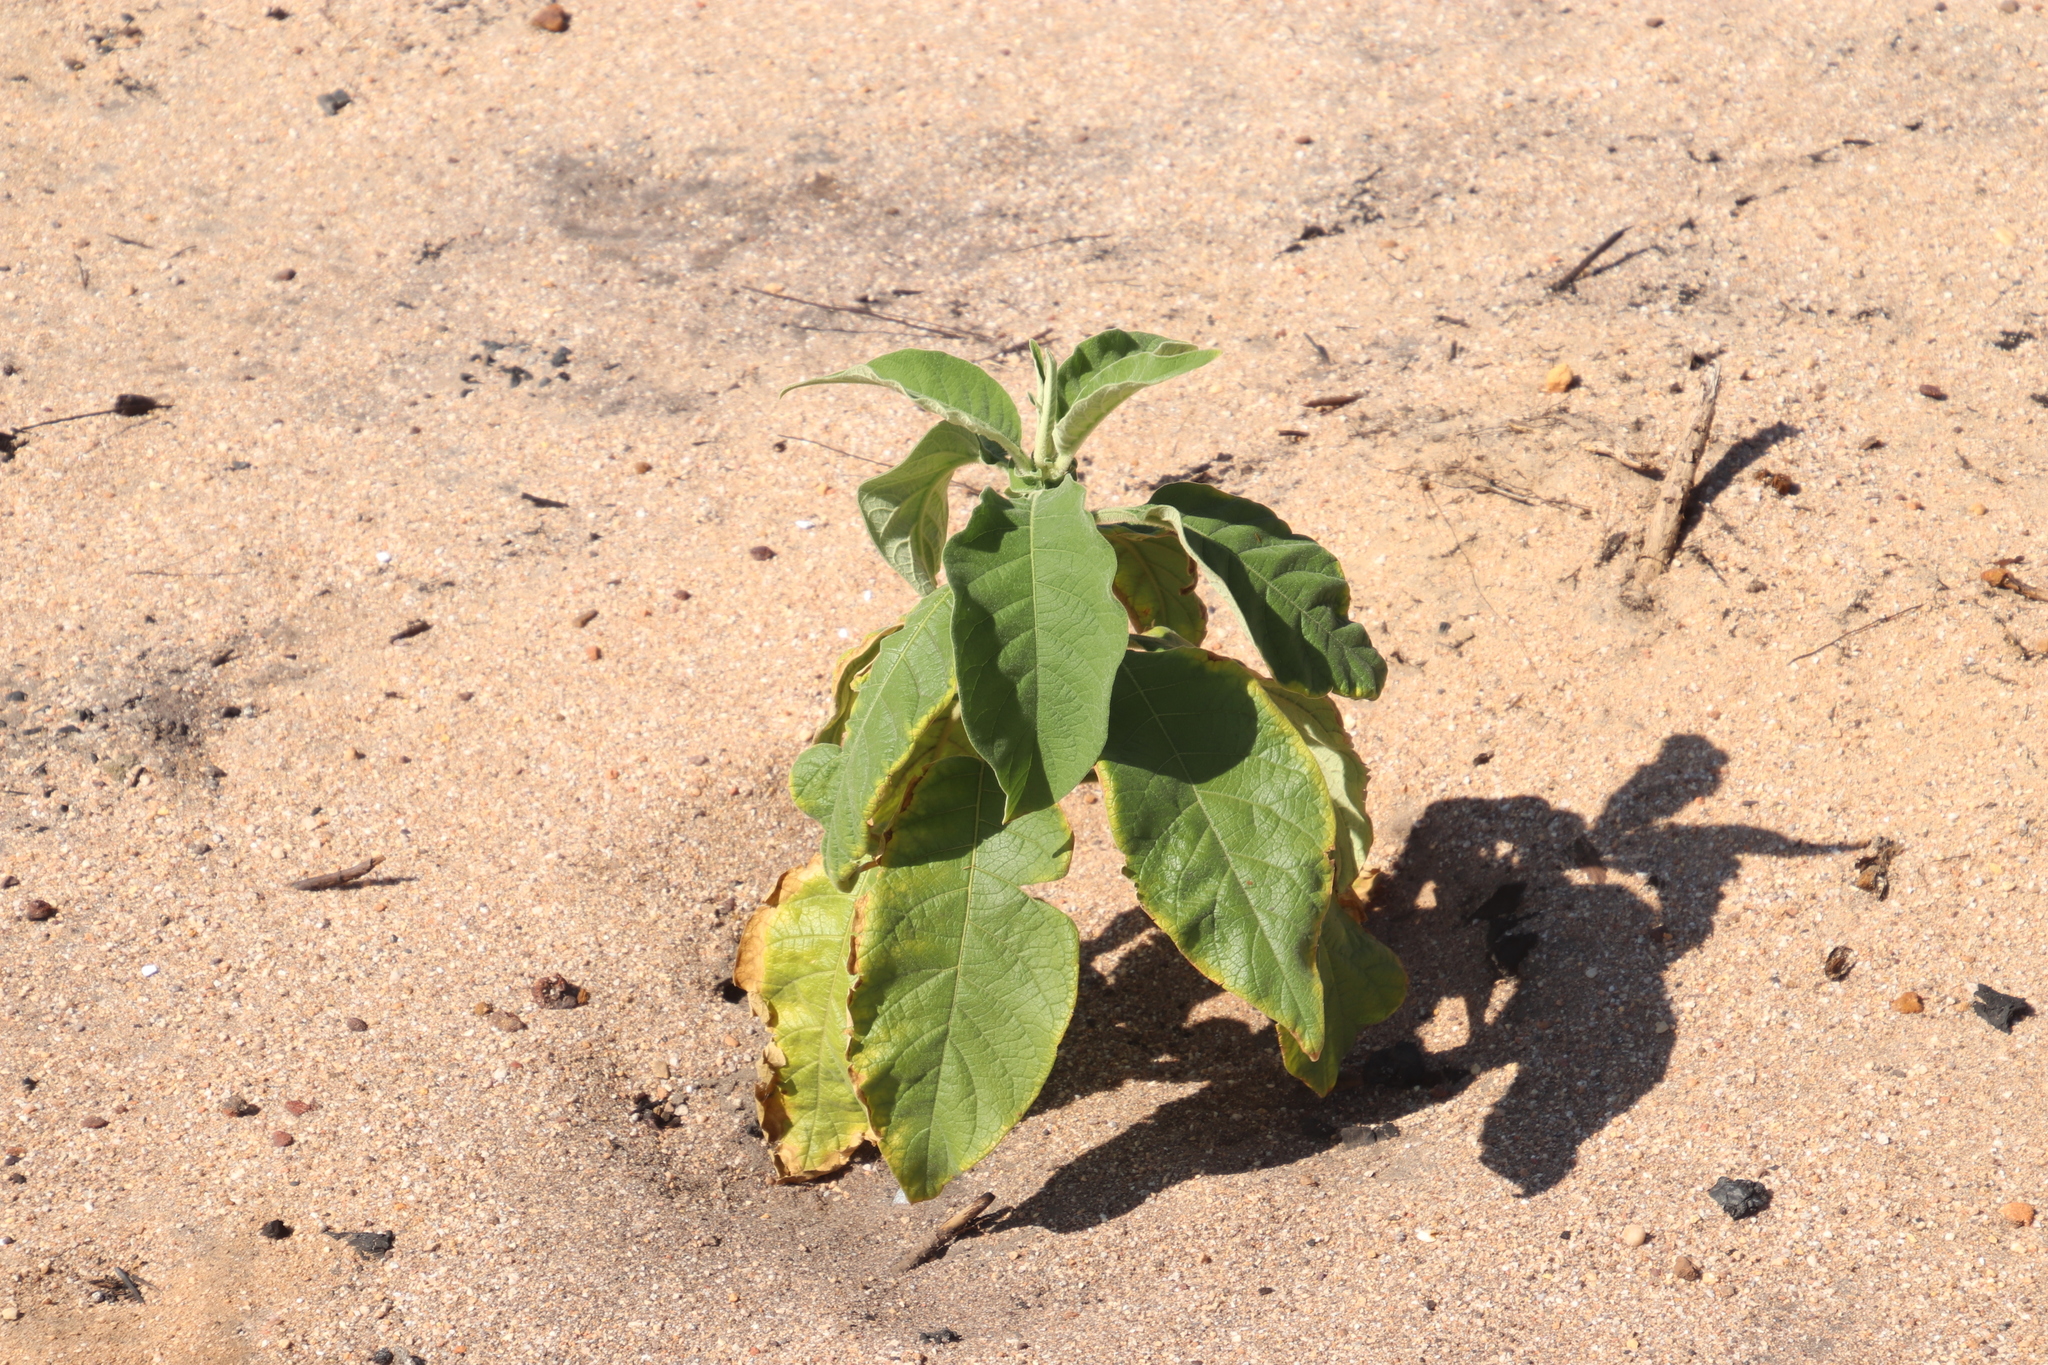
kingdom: Plantae
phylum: Tracheophyta
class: Magnoliopsida
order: Solanales
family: Solanaceae
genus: Solanum
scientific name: Solanum mauritianum
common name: Earleaf nightshade
